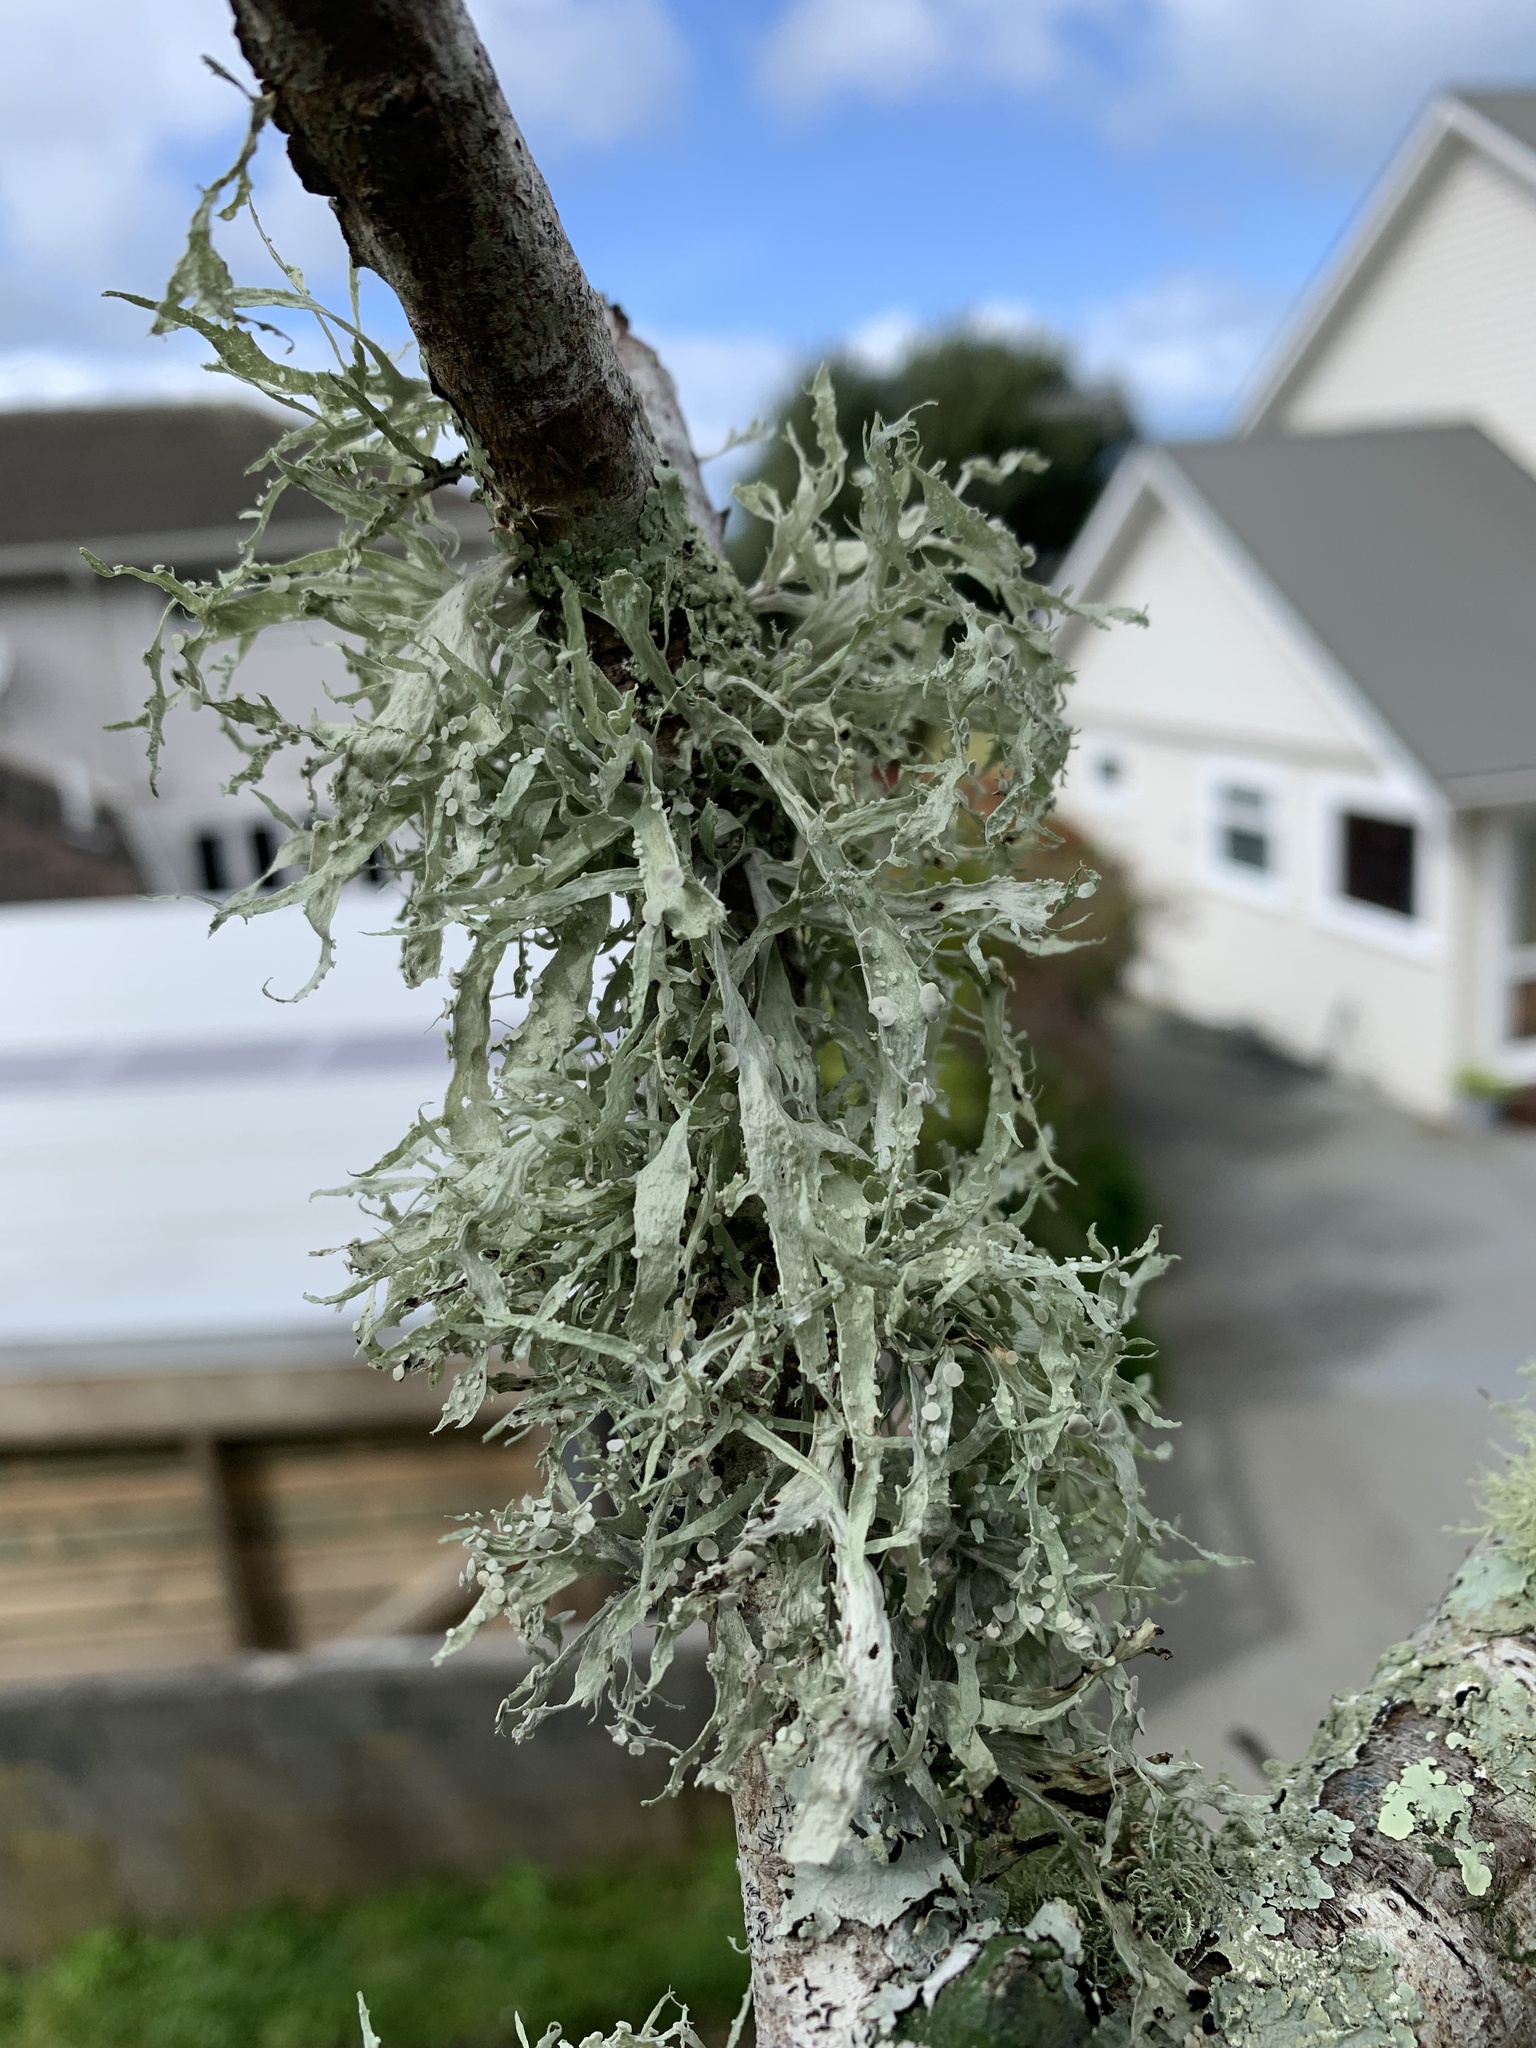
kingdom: Fungi
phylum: Ascomycota
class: Lecanoromycetes
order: Lecanorales
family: Ramalinaceae
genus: Ramalina
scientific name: Ramalina celastri
